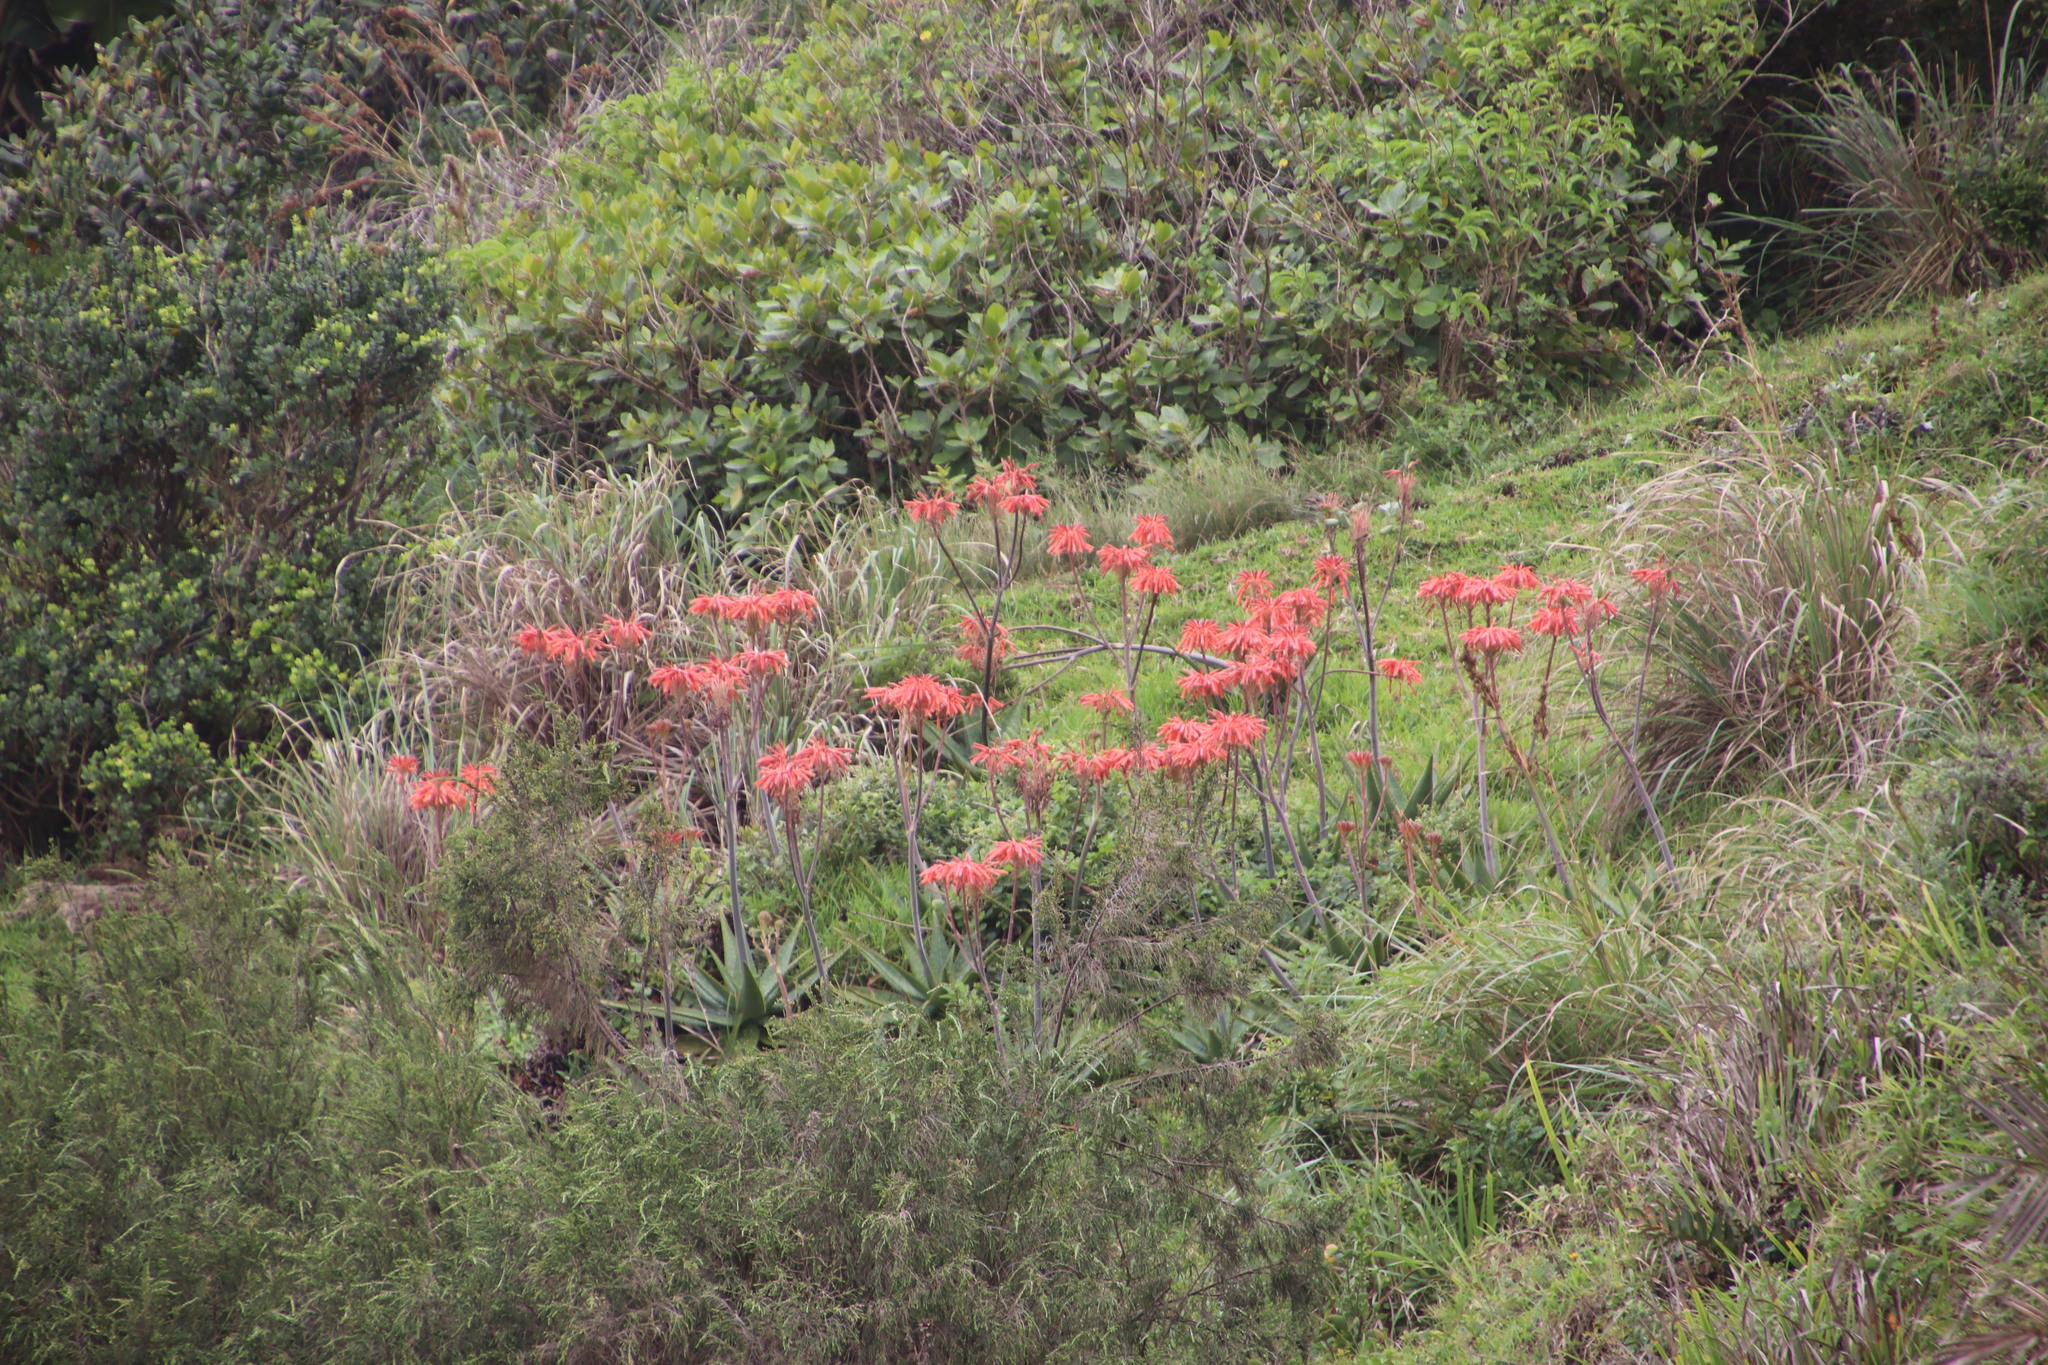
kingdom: Plantae
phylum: Tracheophyta
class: Liliopsida
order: Asparagales
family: Asphodelaceae
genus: Aloe
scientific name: Aloe maculata
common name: Broadleaf aloe
